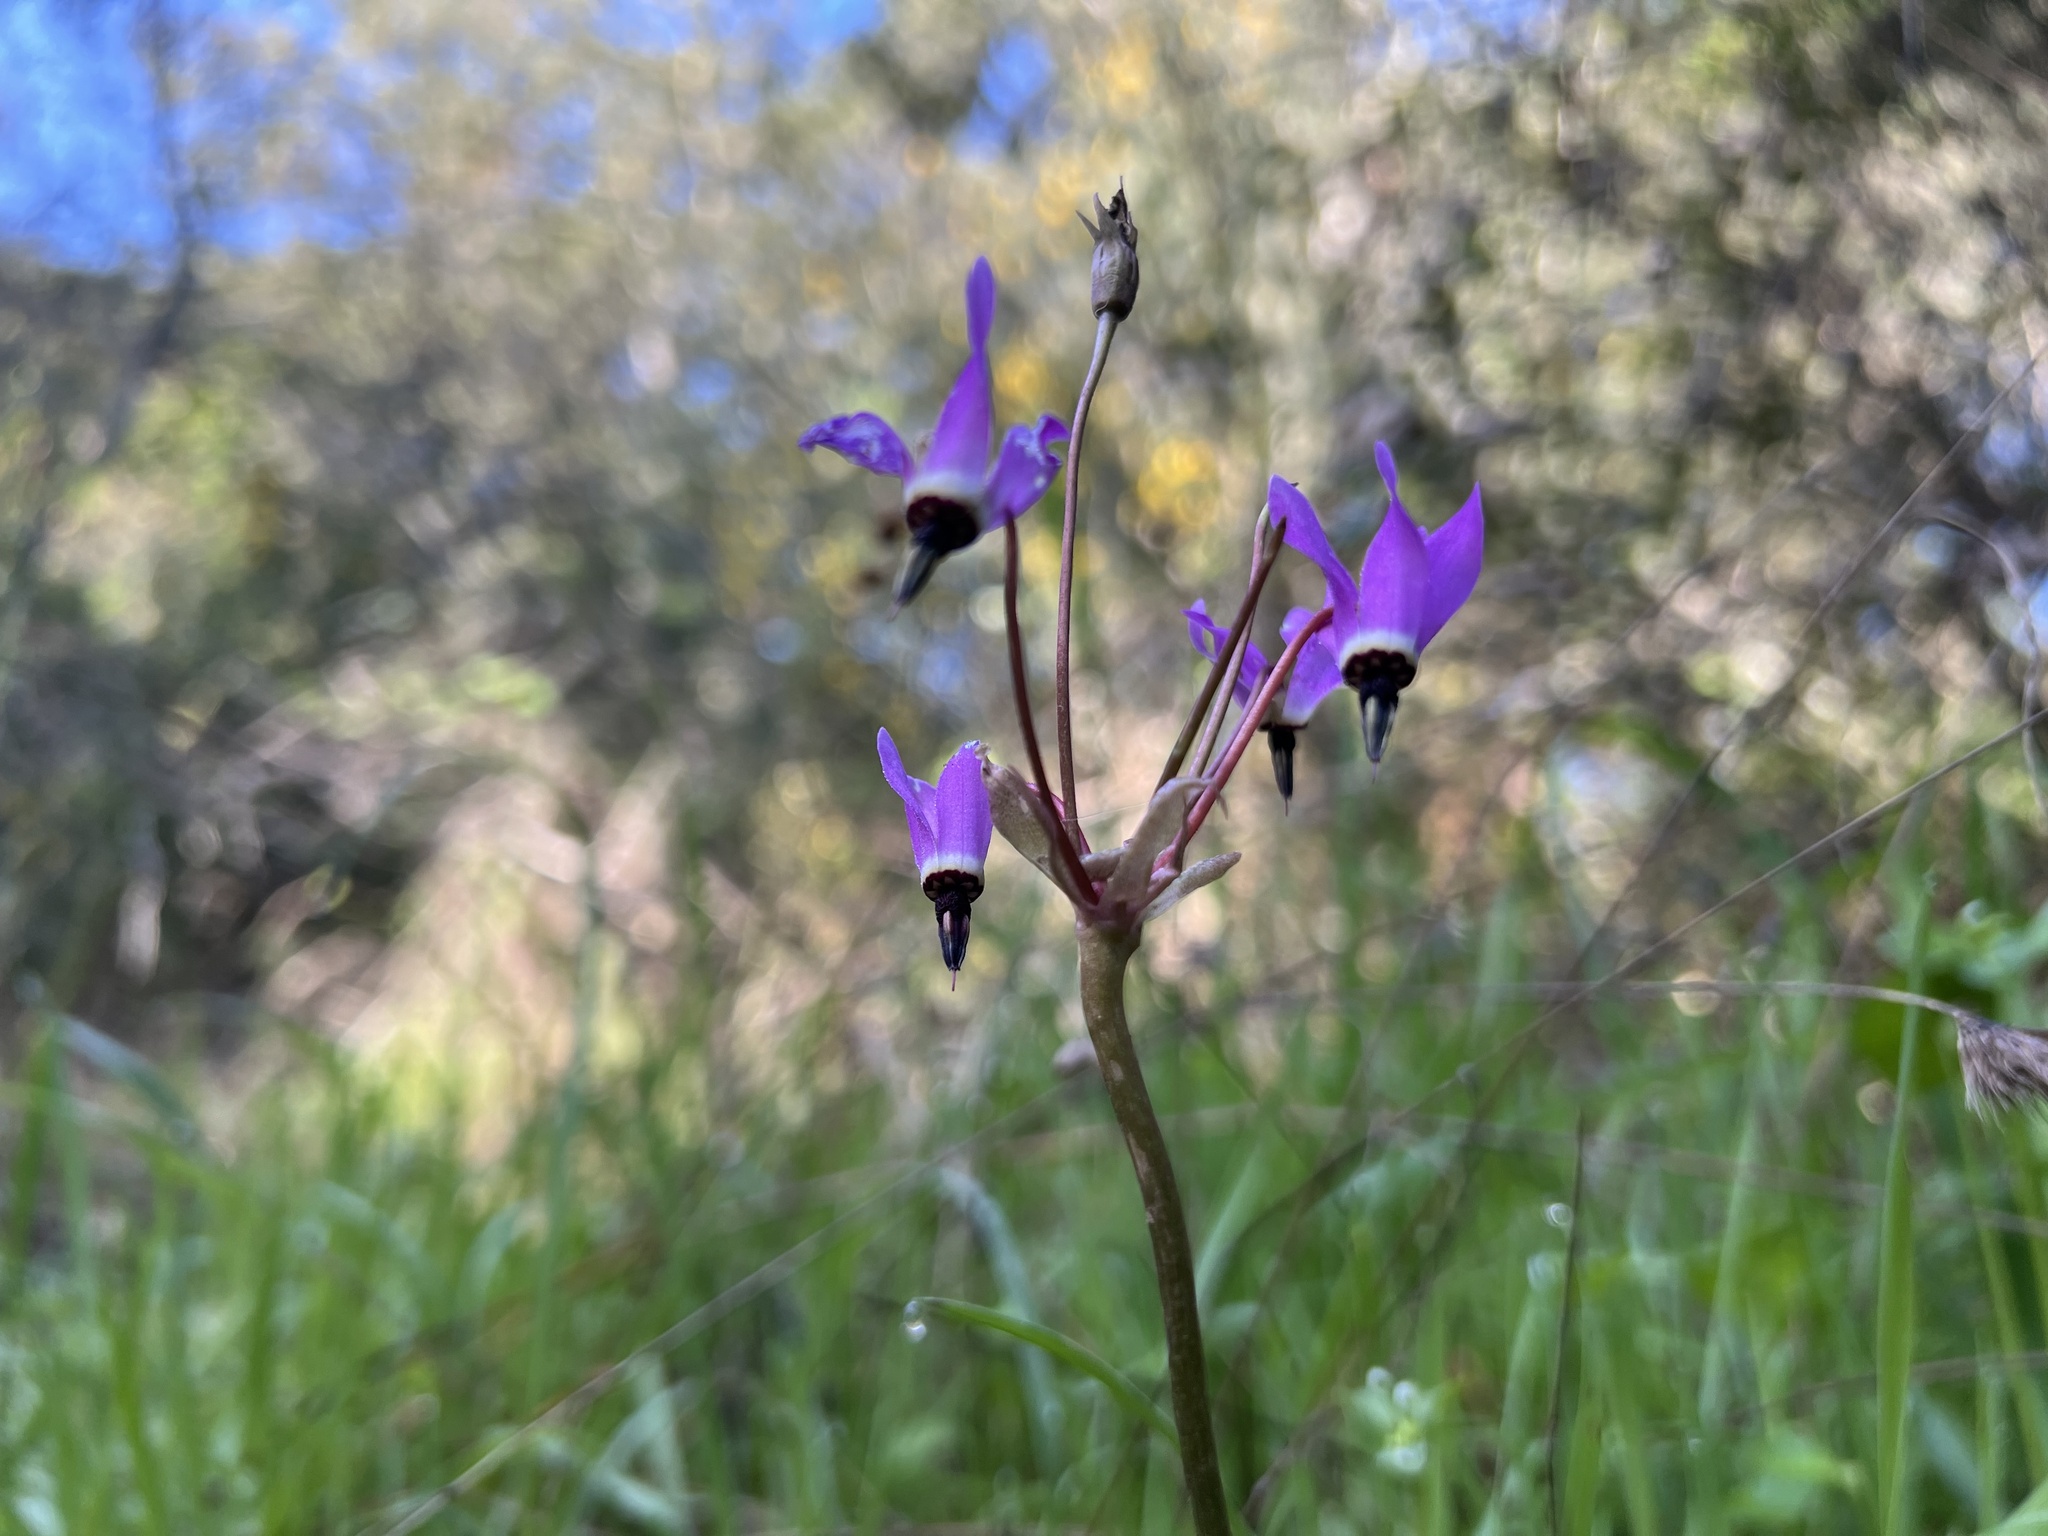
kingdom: Plantae
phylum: Tracheophyta
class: Magnoliopsida
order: Ericales
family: Primulaceae
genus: Dodecatheon
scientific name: Dodecatheon hendersonii
